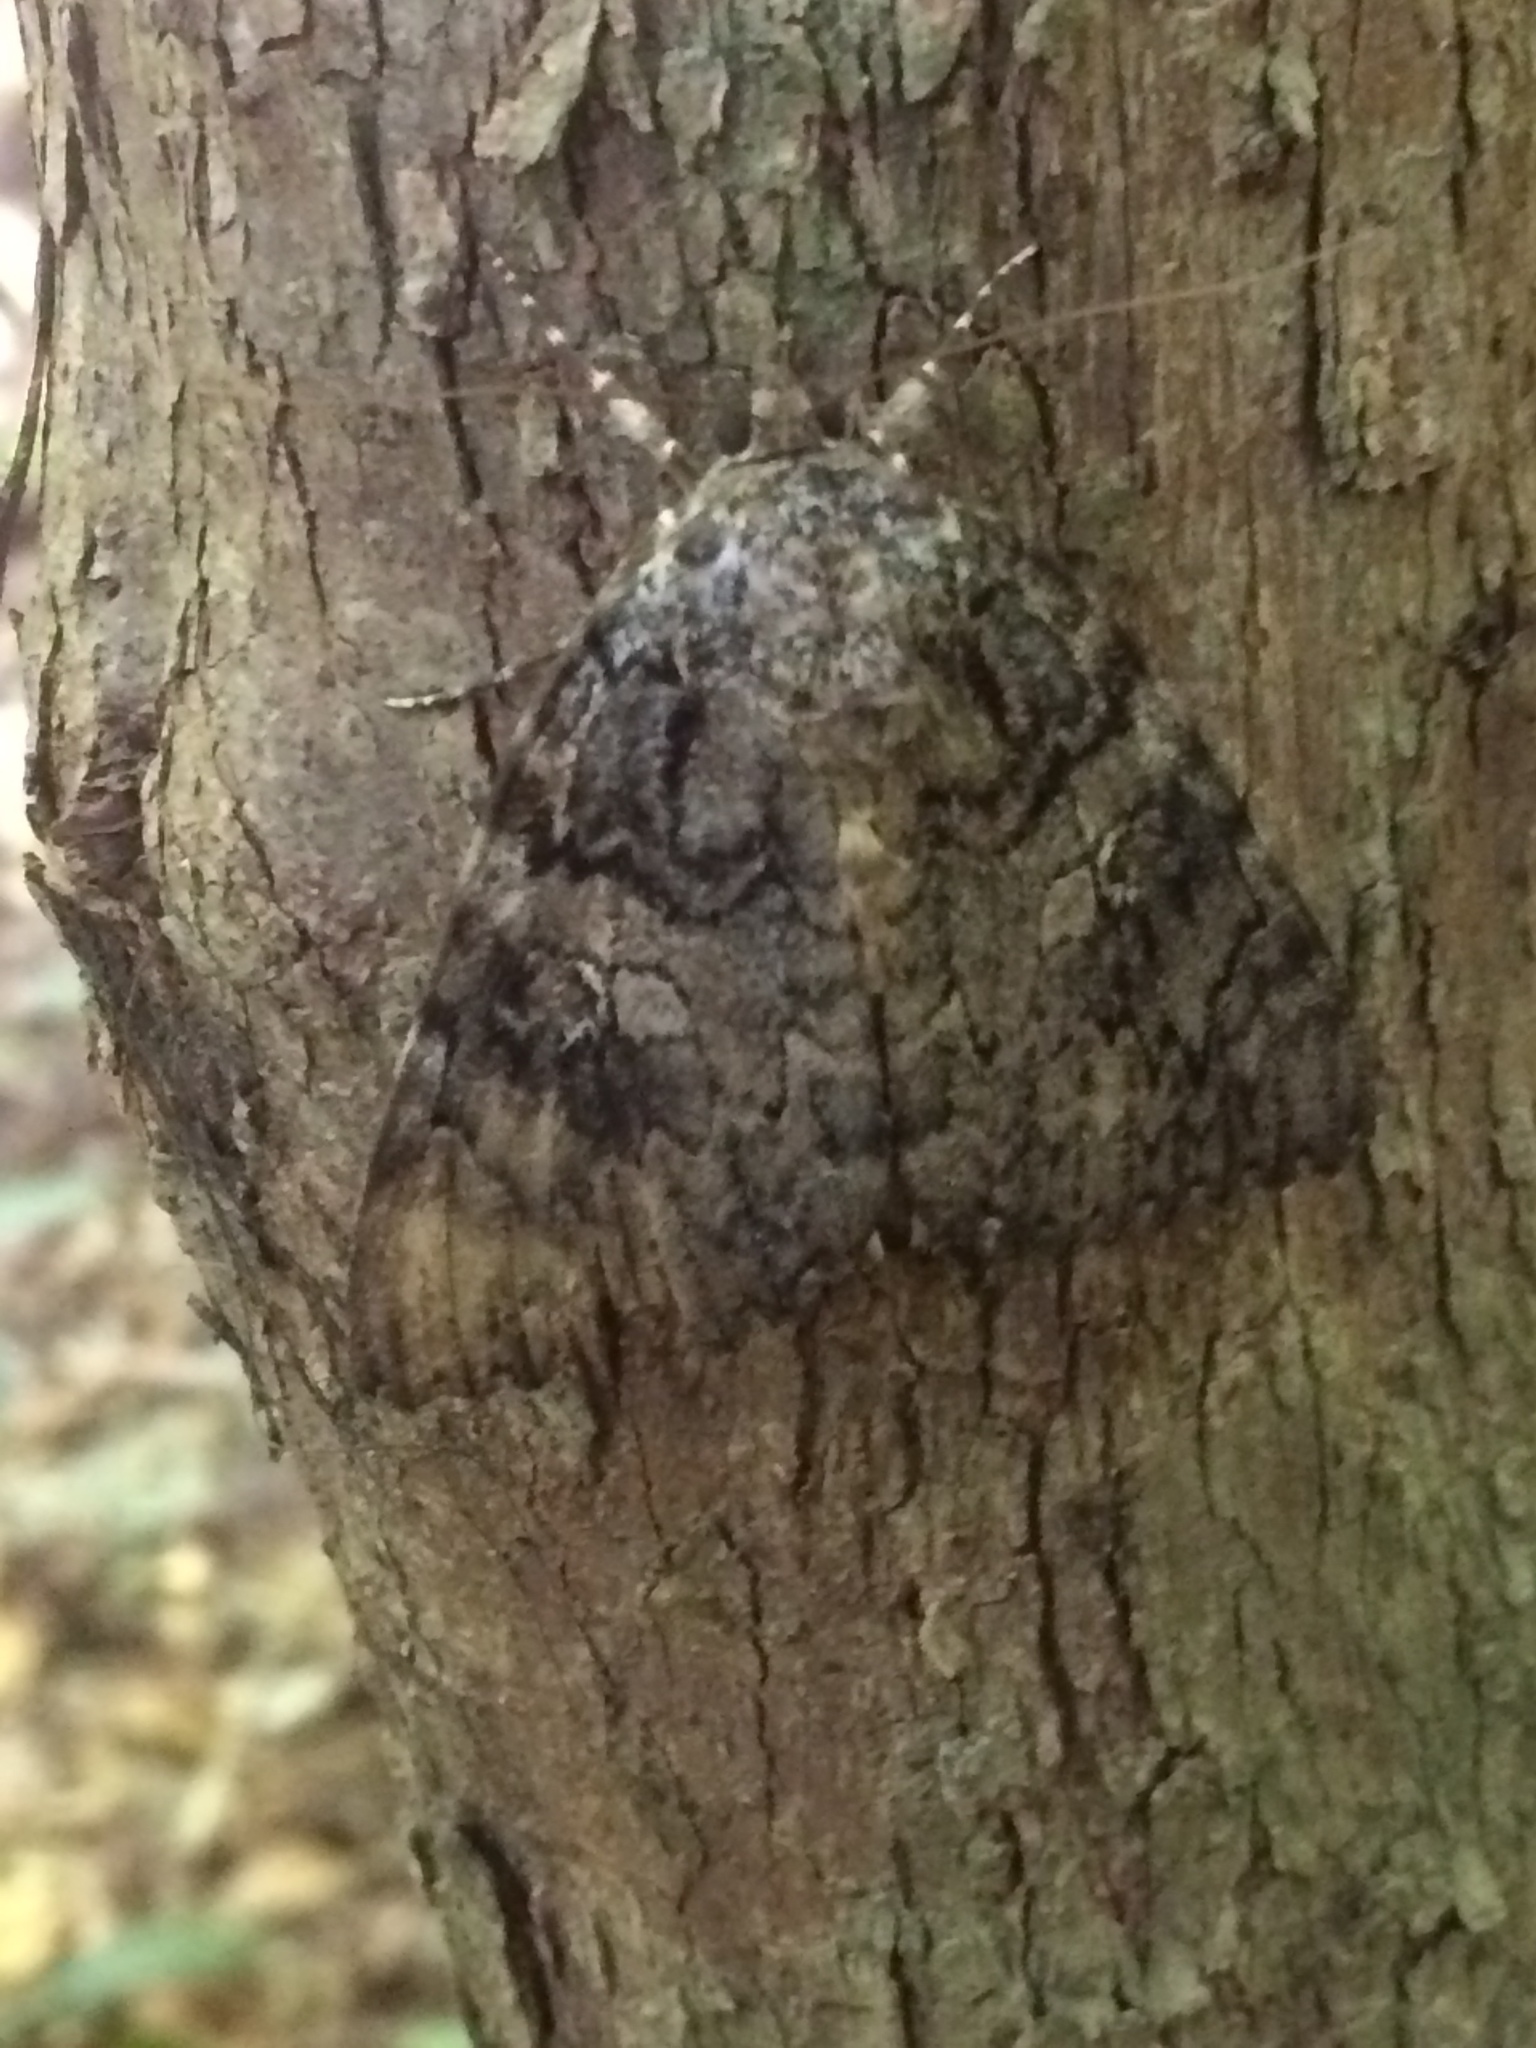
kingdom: Animalia
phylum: Arthropoda
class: Insecta
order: Lepidoptera
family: Erebidae
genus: Catocala
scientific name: Catocala ilia
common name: Ilia underwing
